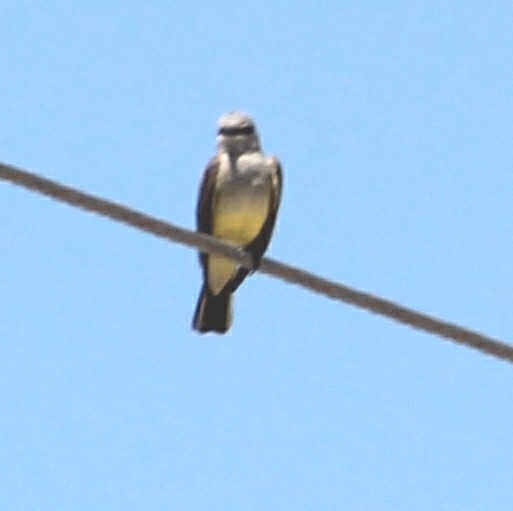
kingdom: Animalia
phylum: Chordata
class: Aves
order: Passeriformes
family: Tyrannidae
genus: Tyrannus
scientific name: Tyrannus verticalis
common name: Western kingbird
